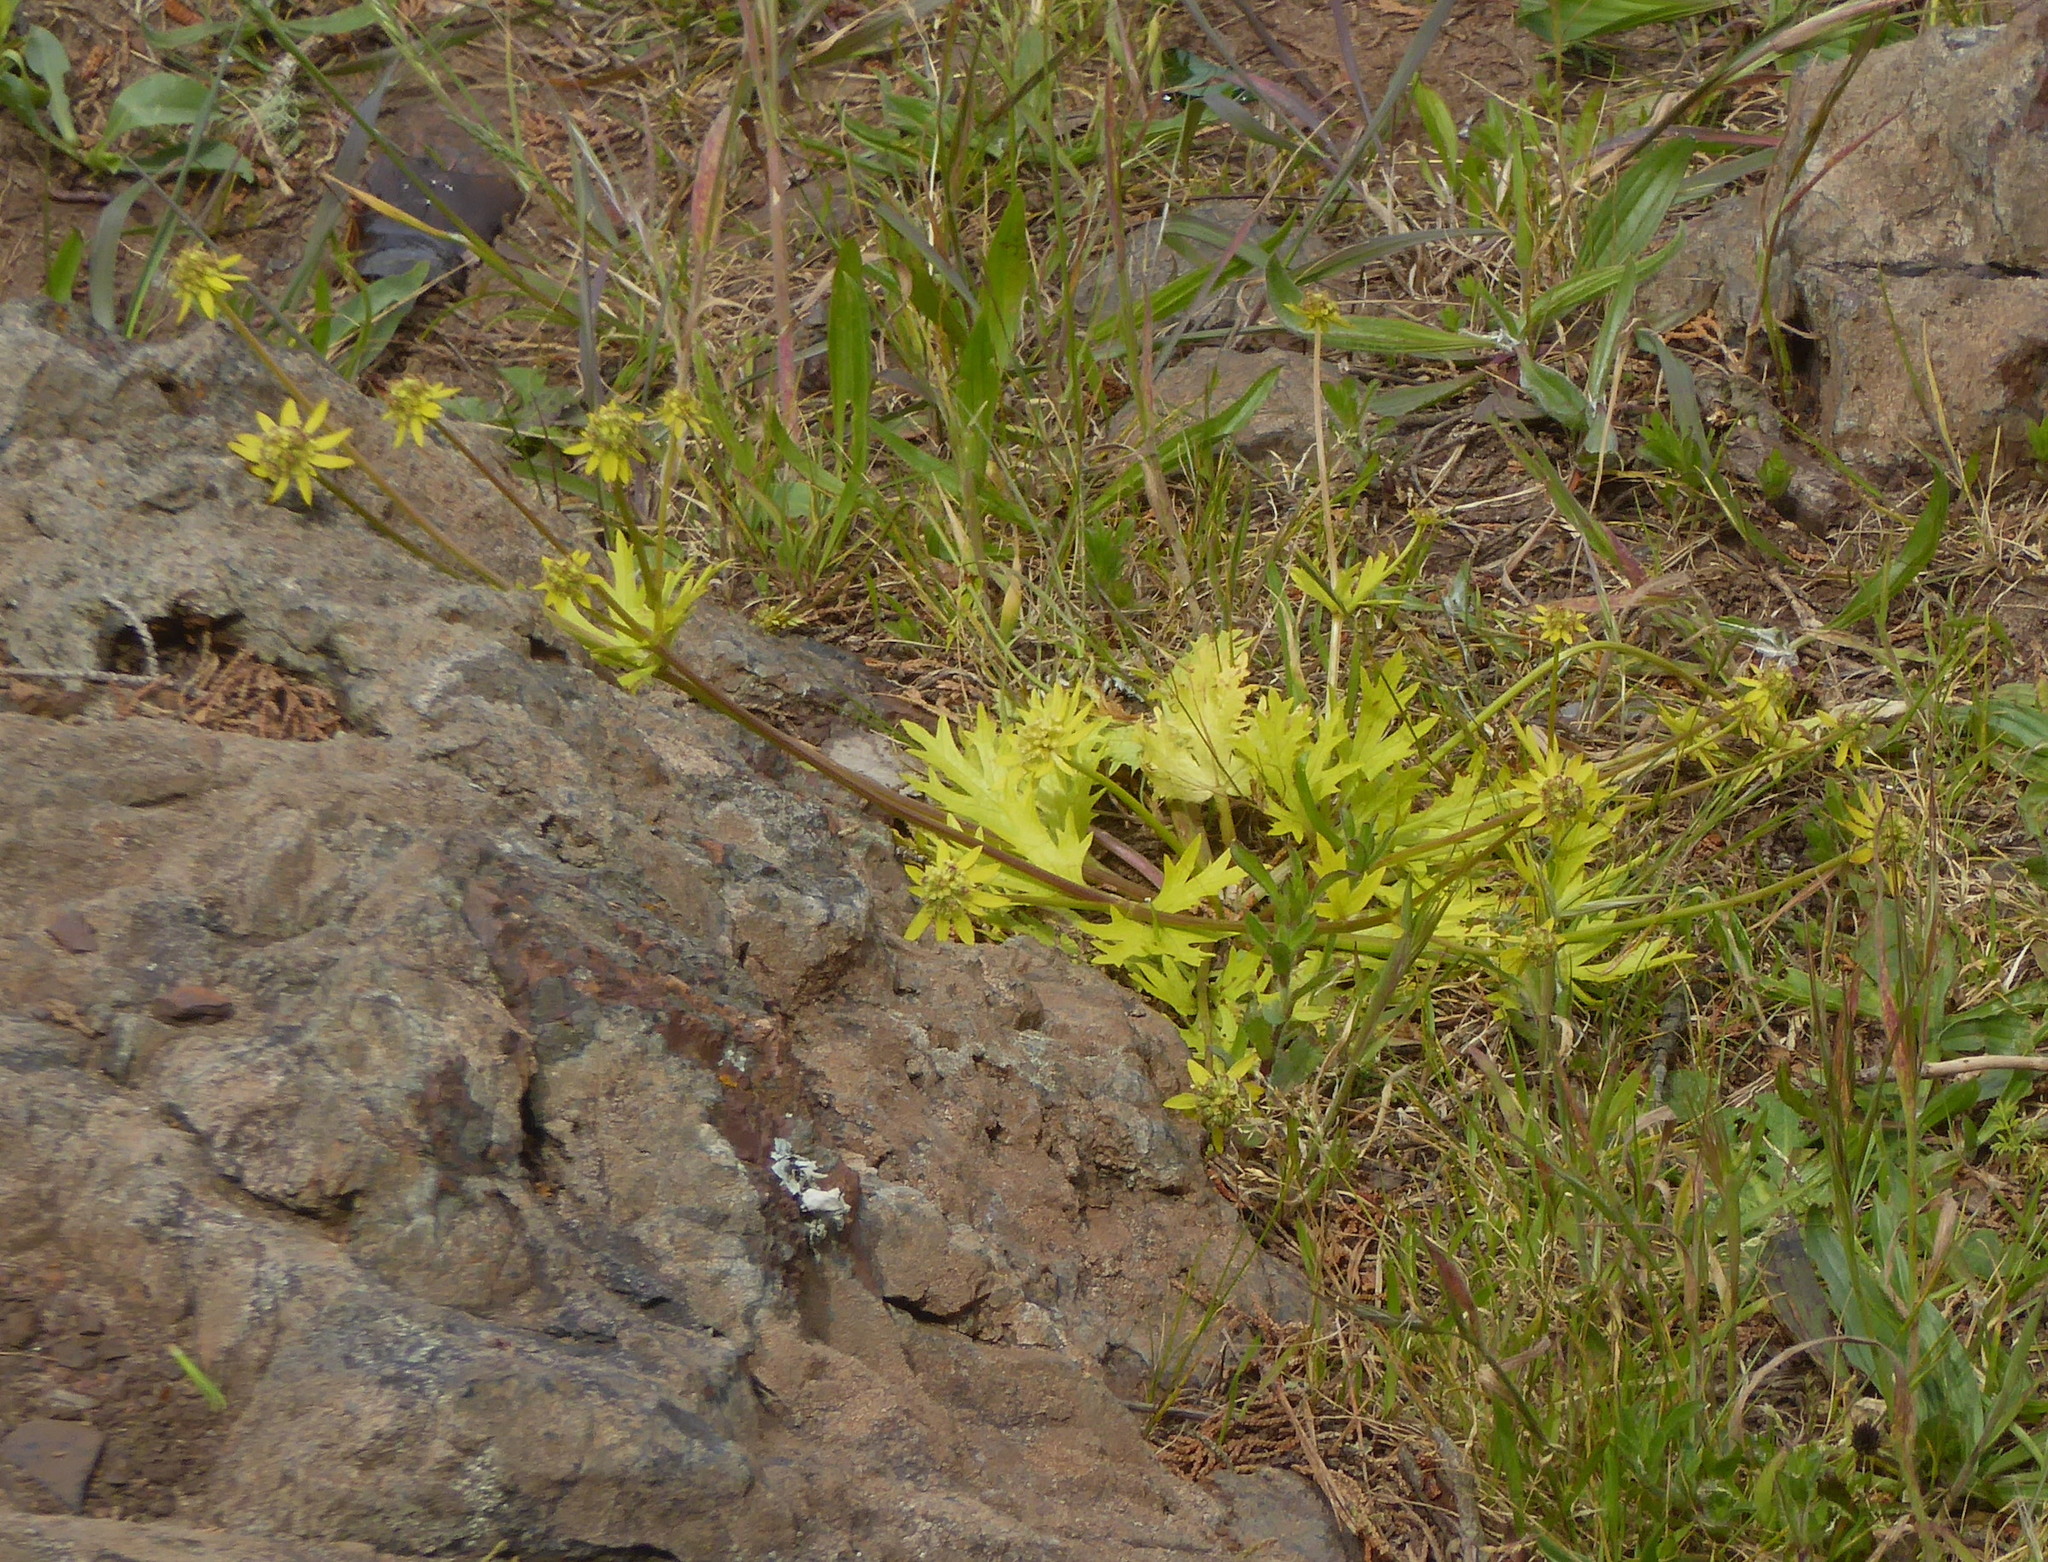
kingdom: Plantae
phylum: Tracheophyta
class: Magnoliopsida
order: Apiales
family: Apiaceae
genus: Sanicula
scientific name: Sanicula arctopoides
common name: Footsteps-of-spring
